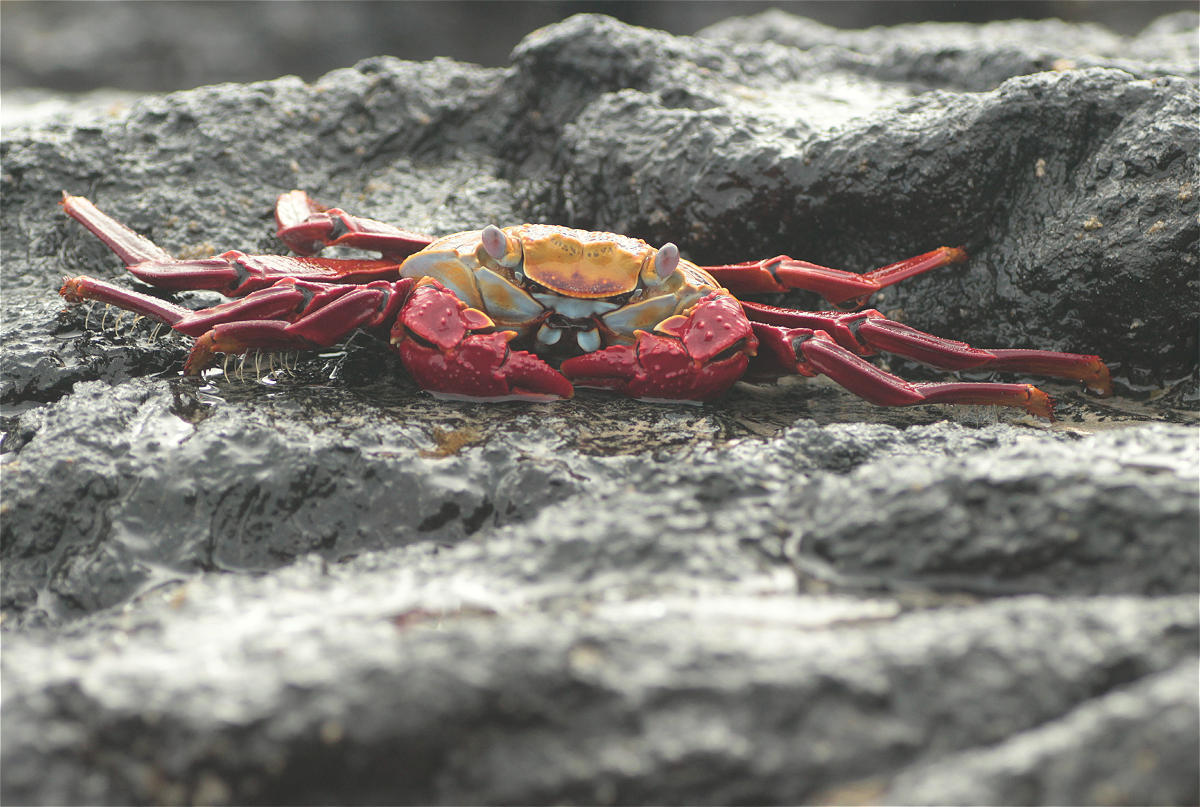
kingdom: Animalia
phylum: Arthropoda
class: Malacostraca
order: Decapoda
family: Grapsidae
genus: Grapsus
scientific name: Grapsus grapsus
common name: Sally lightfoot
